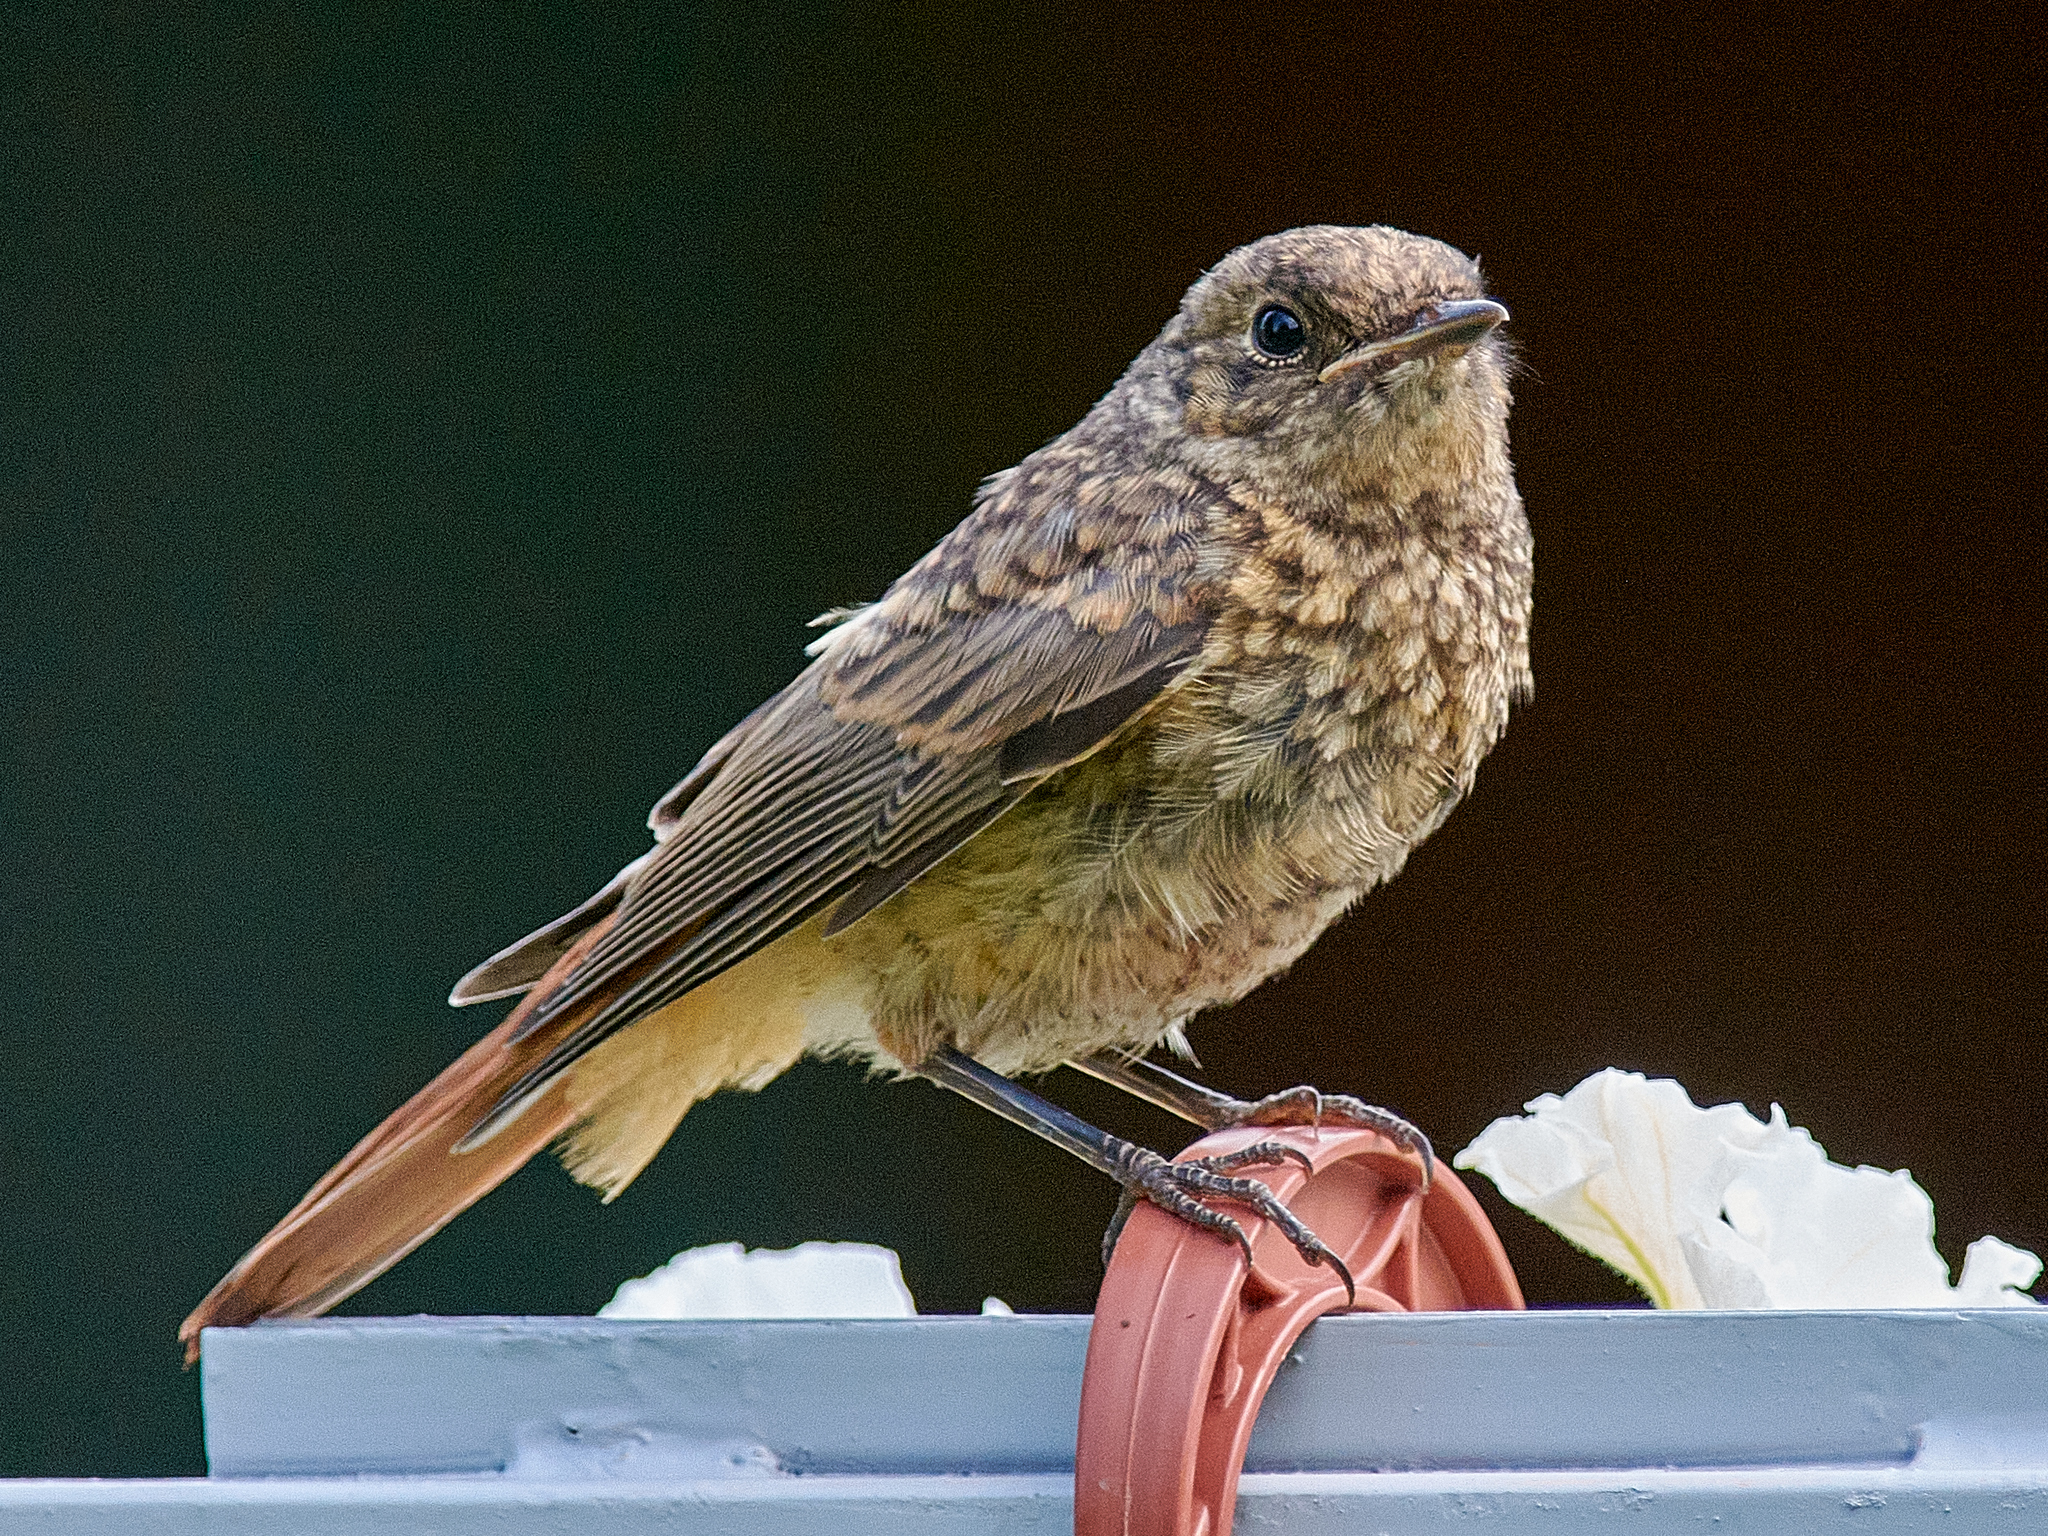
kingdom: Animalia
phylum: Chordata
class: Aves
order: Passeriformes
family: Muscicapidae
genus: Phoenicurus
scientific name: Phoenicurus phoenicurus
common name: Common redstart
